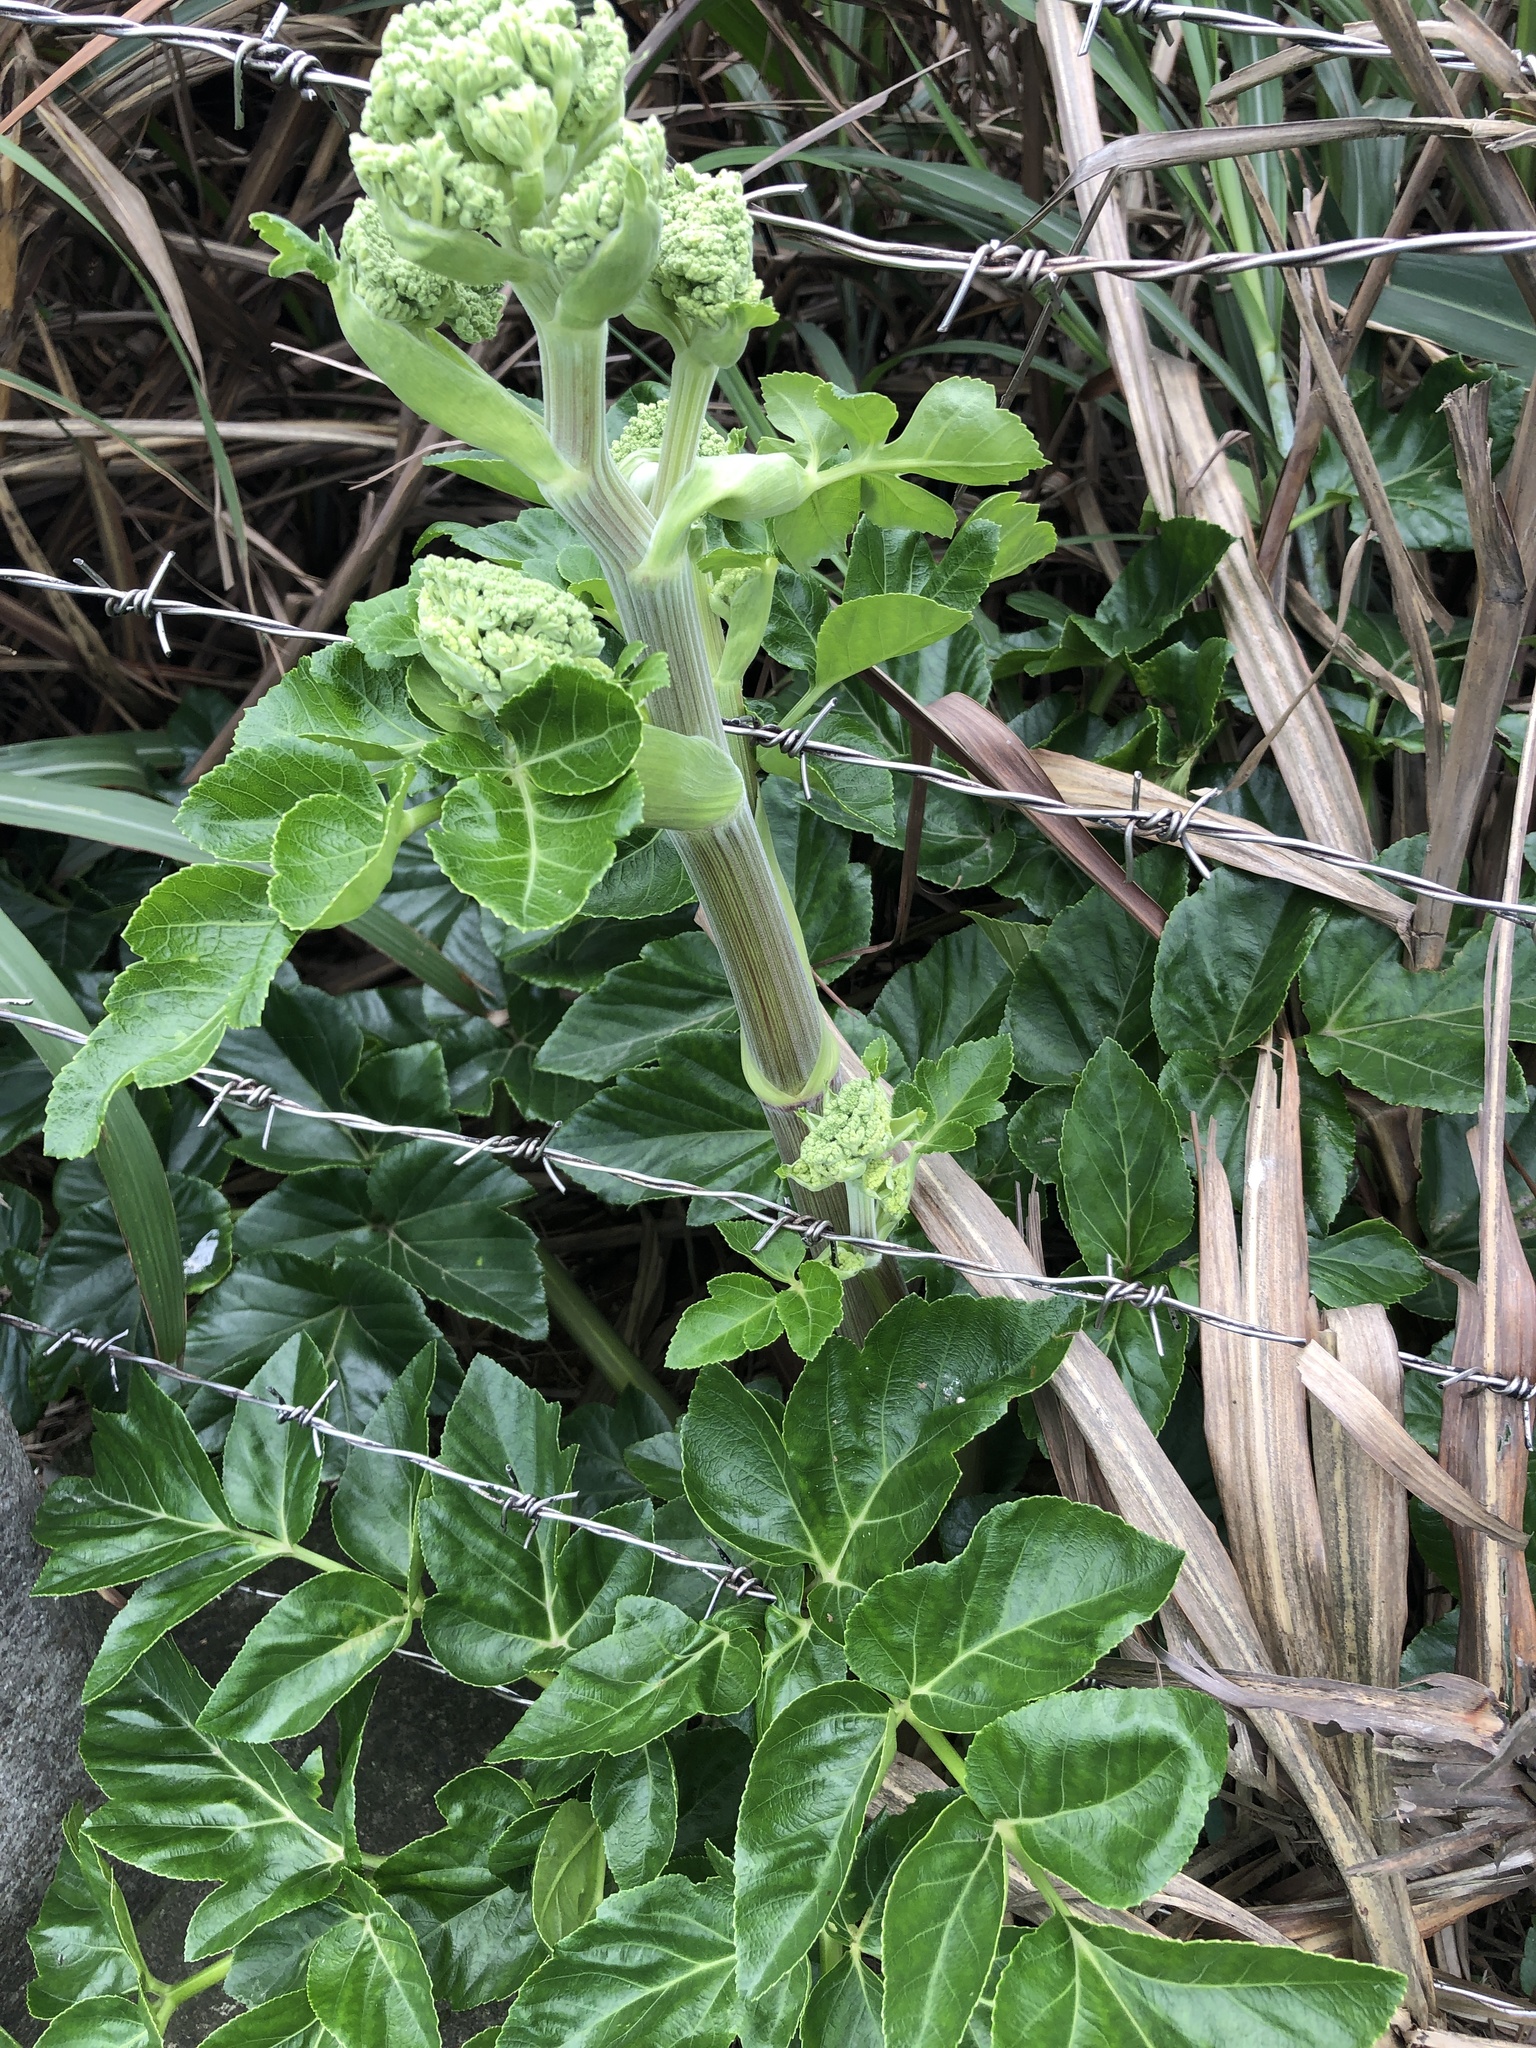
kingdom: Plantae
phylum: Tracheophyta
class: Magnoliopsida
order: Apiales
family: Apiaceae
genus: Angelica
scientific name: Angelica hirsutiflora
